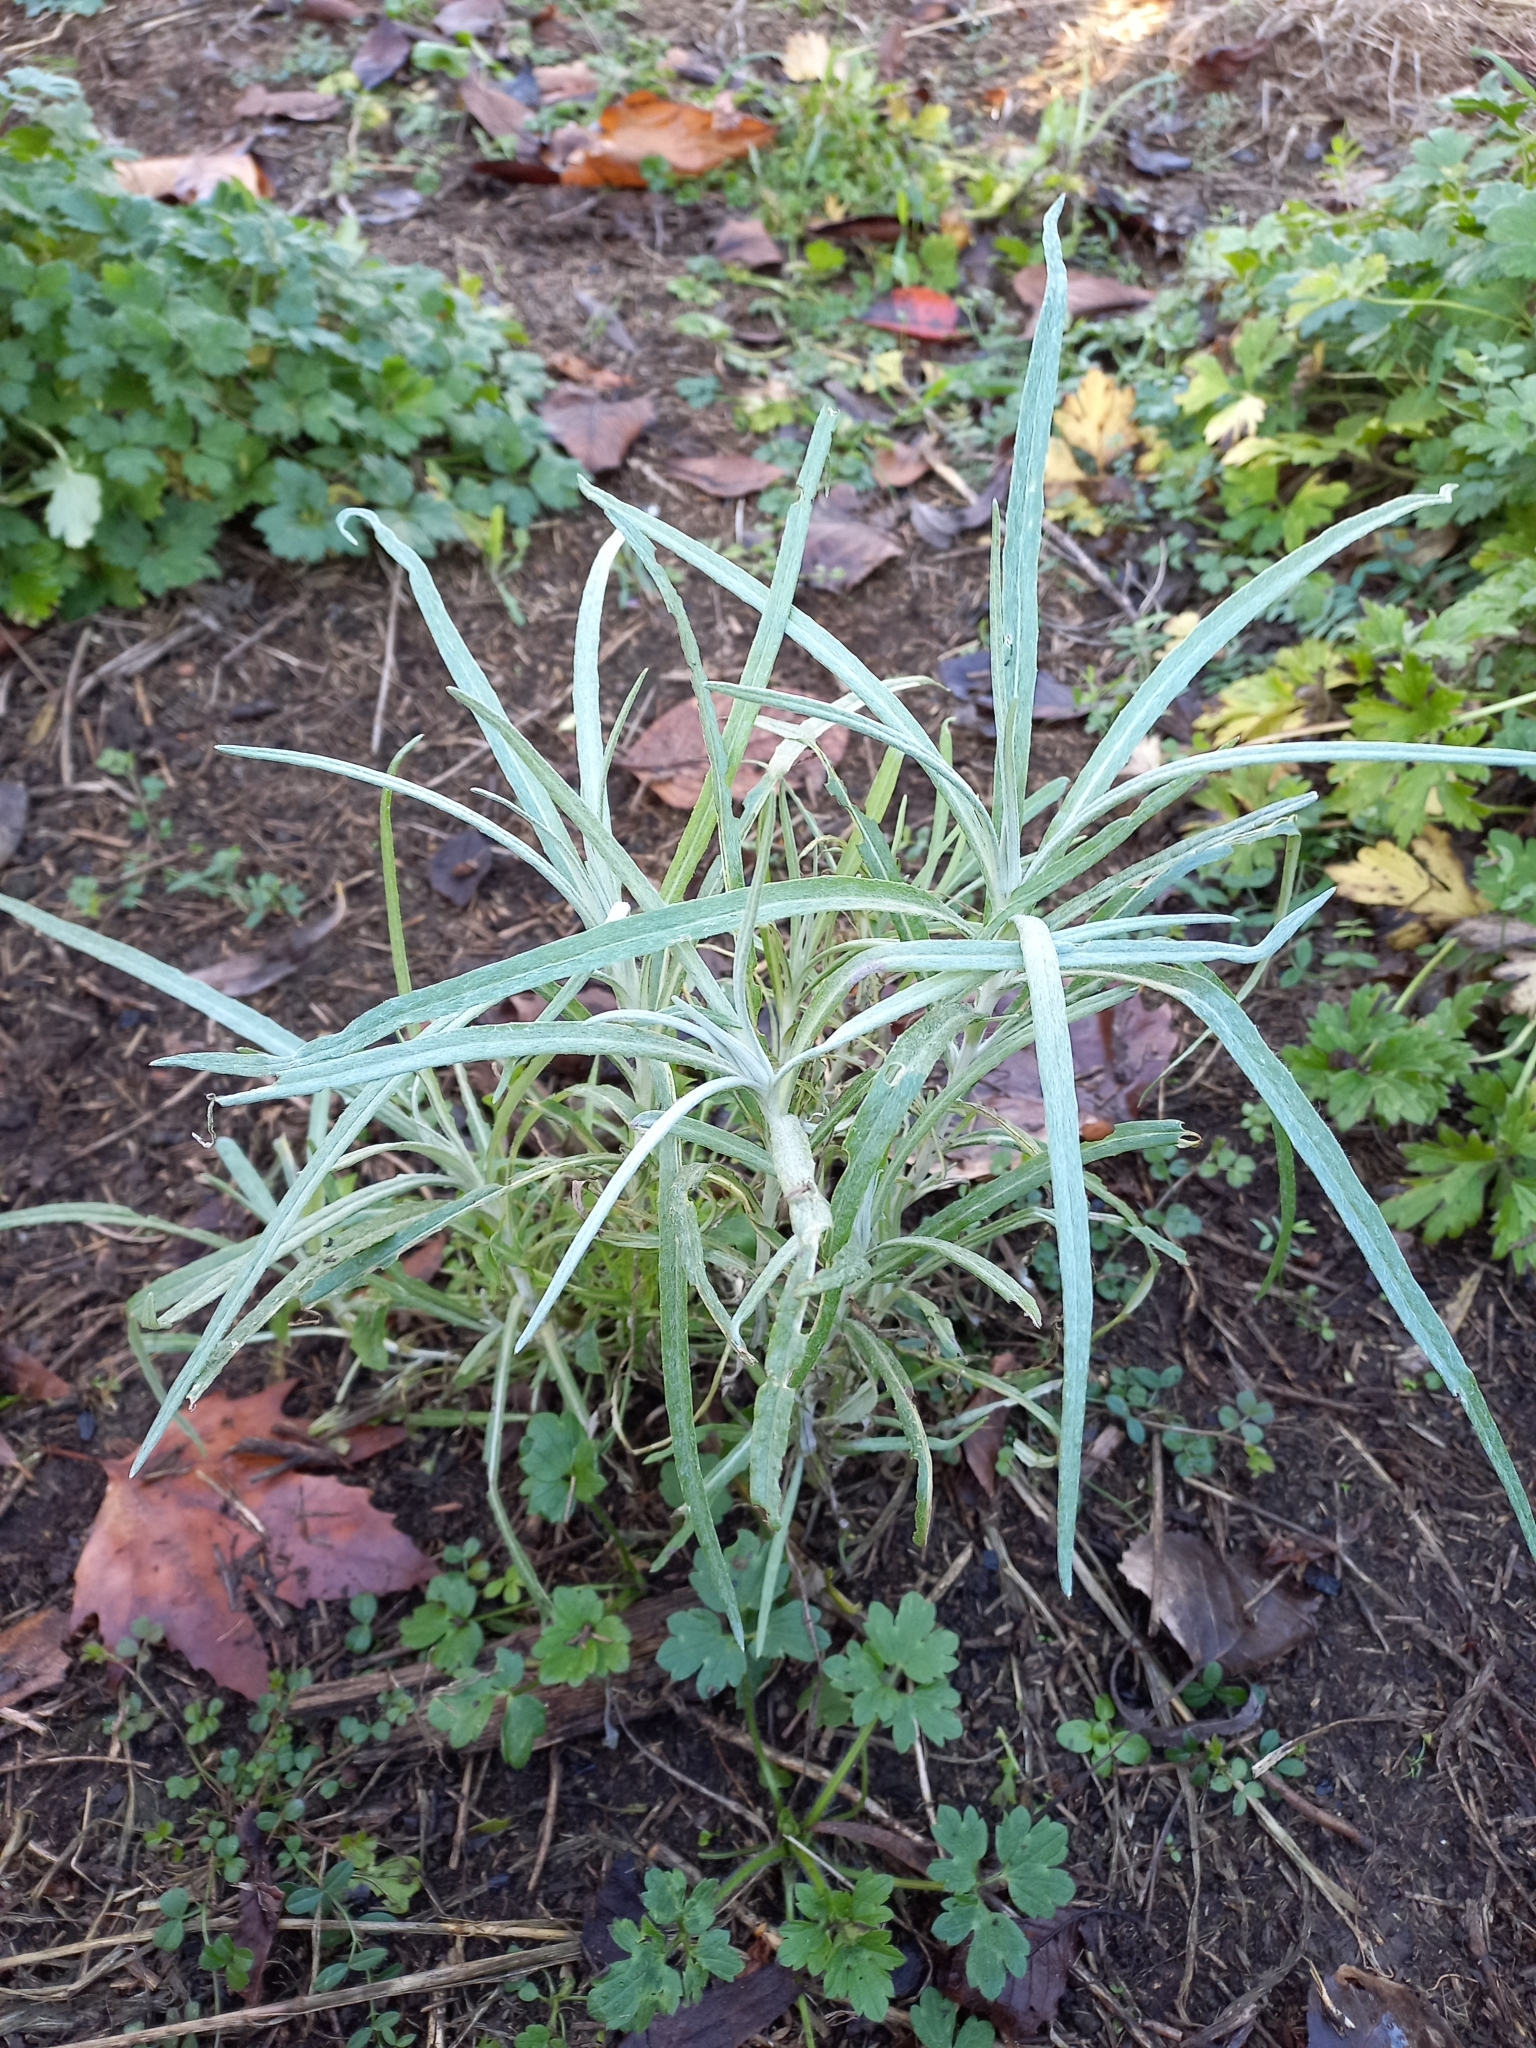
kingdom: Plantae
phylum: Tracheophyta
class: Magnoliopsida
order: Asterales
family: Asteraceae
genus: Senecio
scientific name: Senecio quadridentatus
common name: Cotton fireweed
